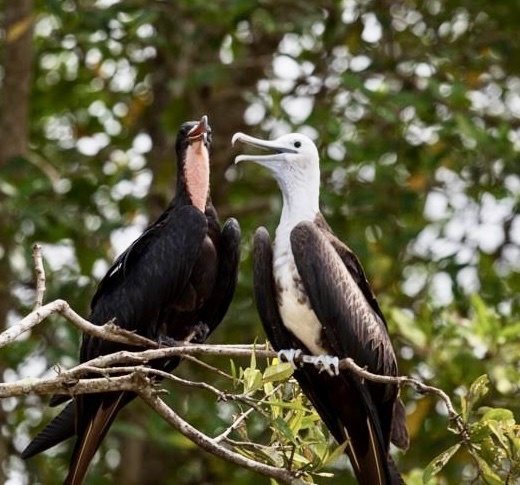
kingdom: Animalia
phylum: Chordata
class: Aves
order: Suliformes
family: Fregatidae
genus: Fregata
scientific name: Fregata magnificens
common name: Magnificent frigatebird
